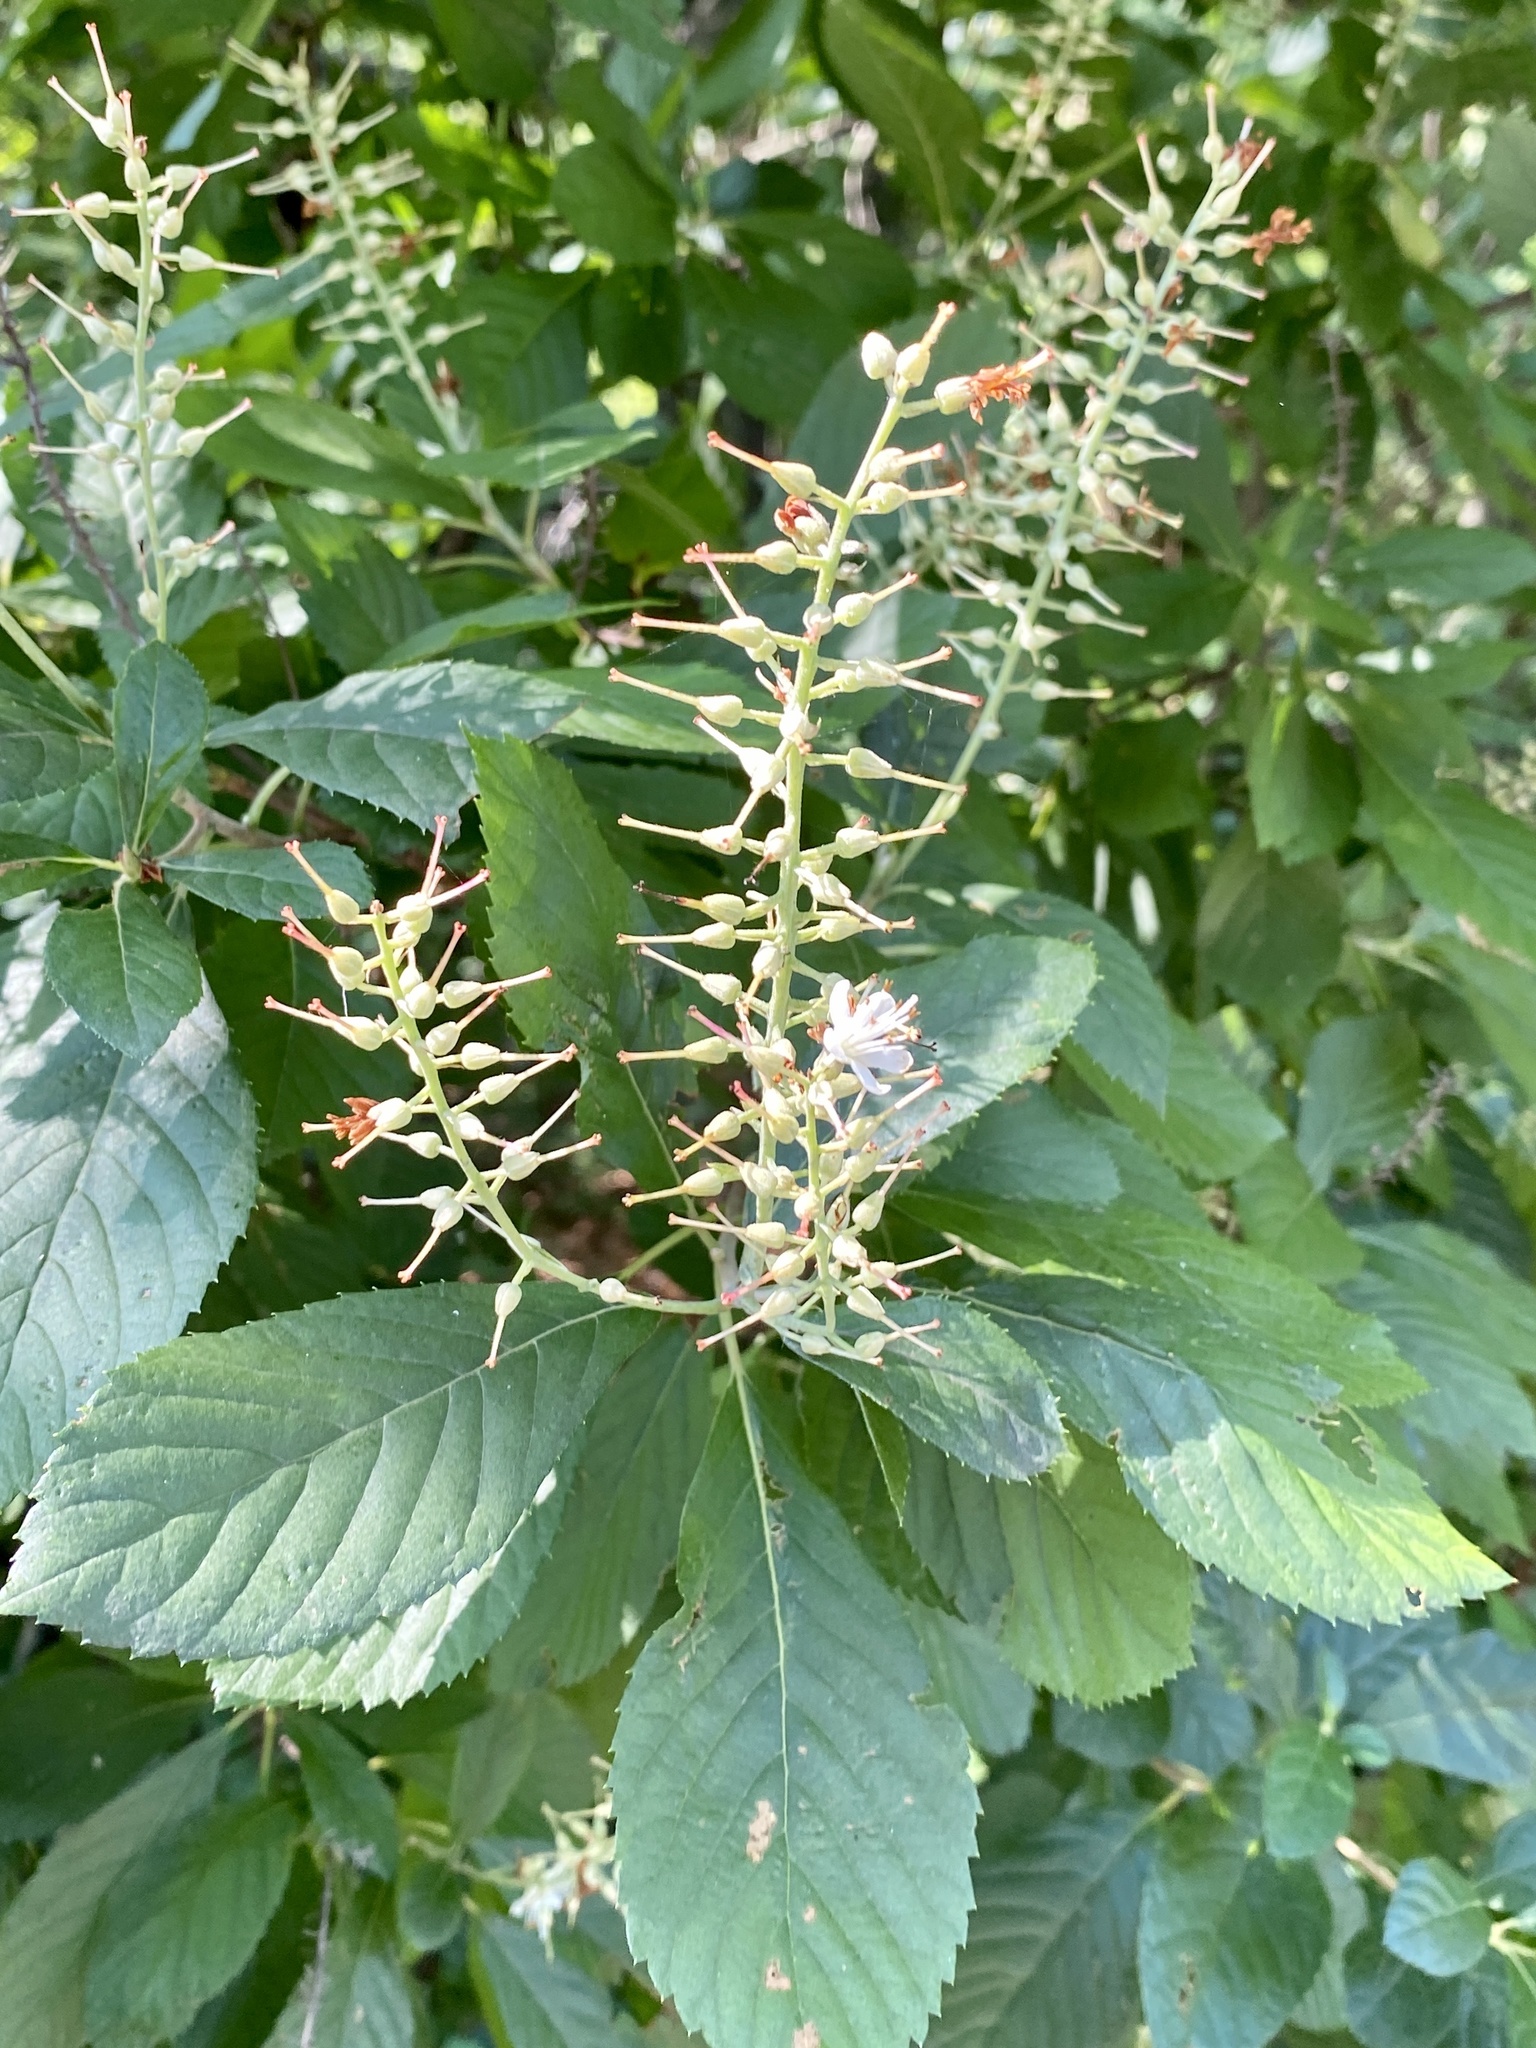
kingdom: Plantae
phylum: Tracheophyta
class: Magnoliopsida
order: Ericales
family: Clethraceae
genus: Clethra
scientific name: Clethra alnifolia
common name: Sweet pepperbush
